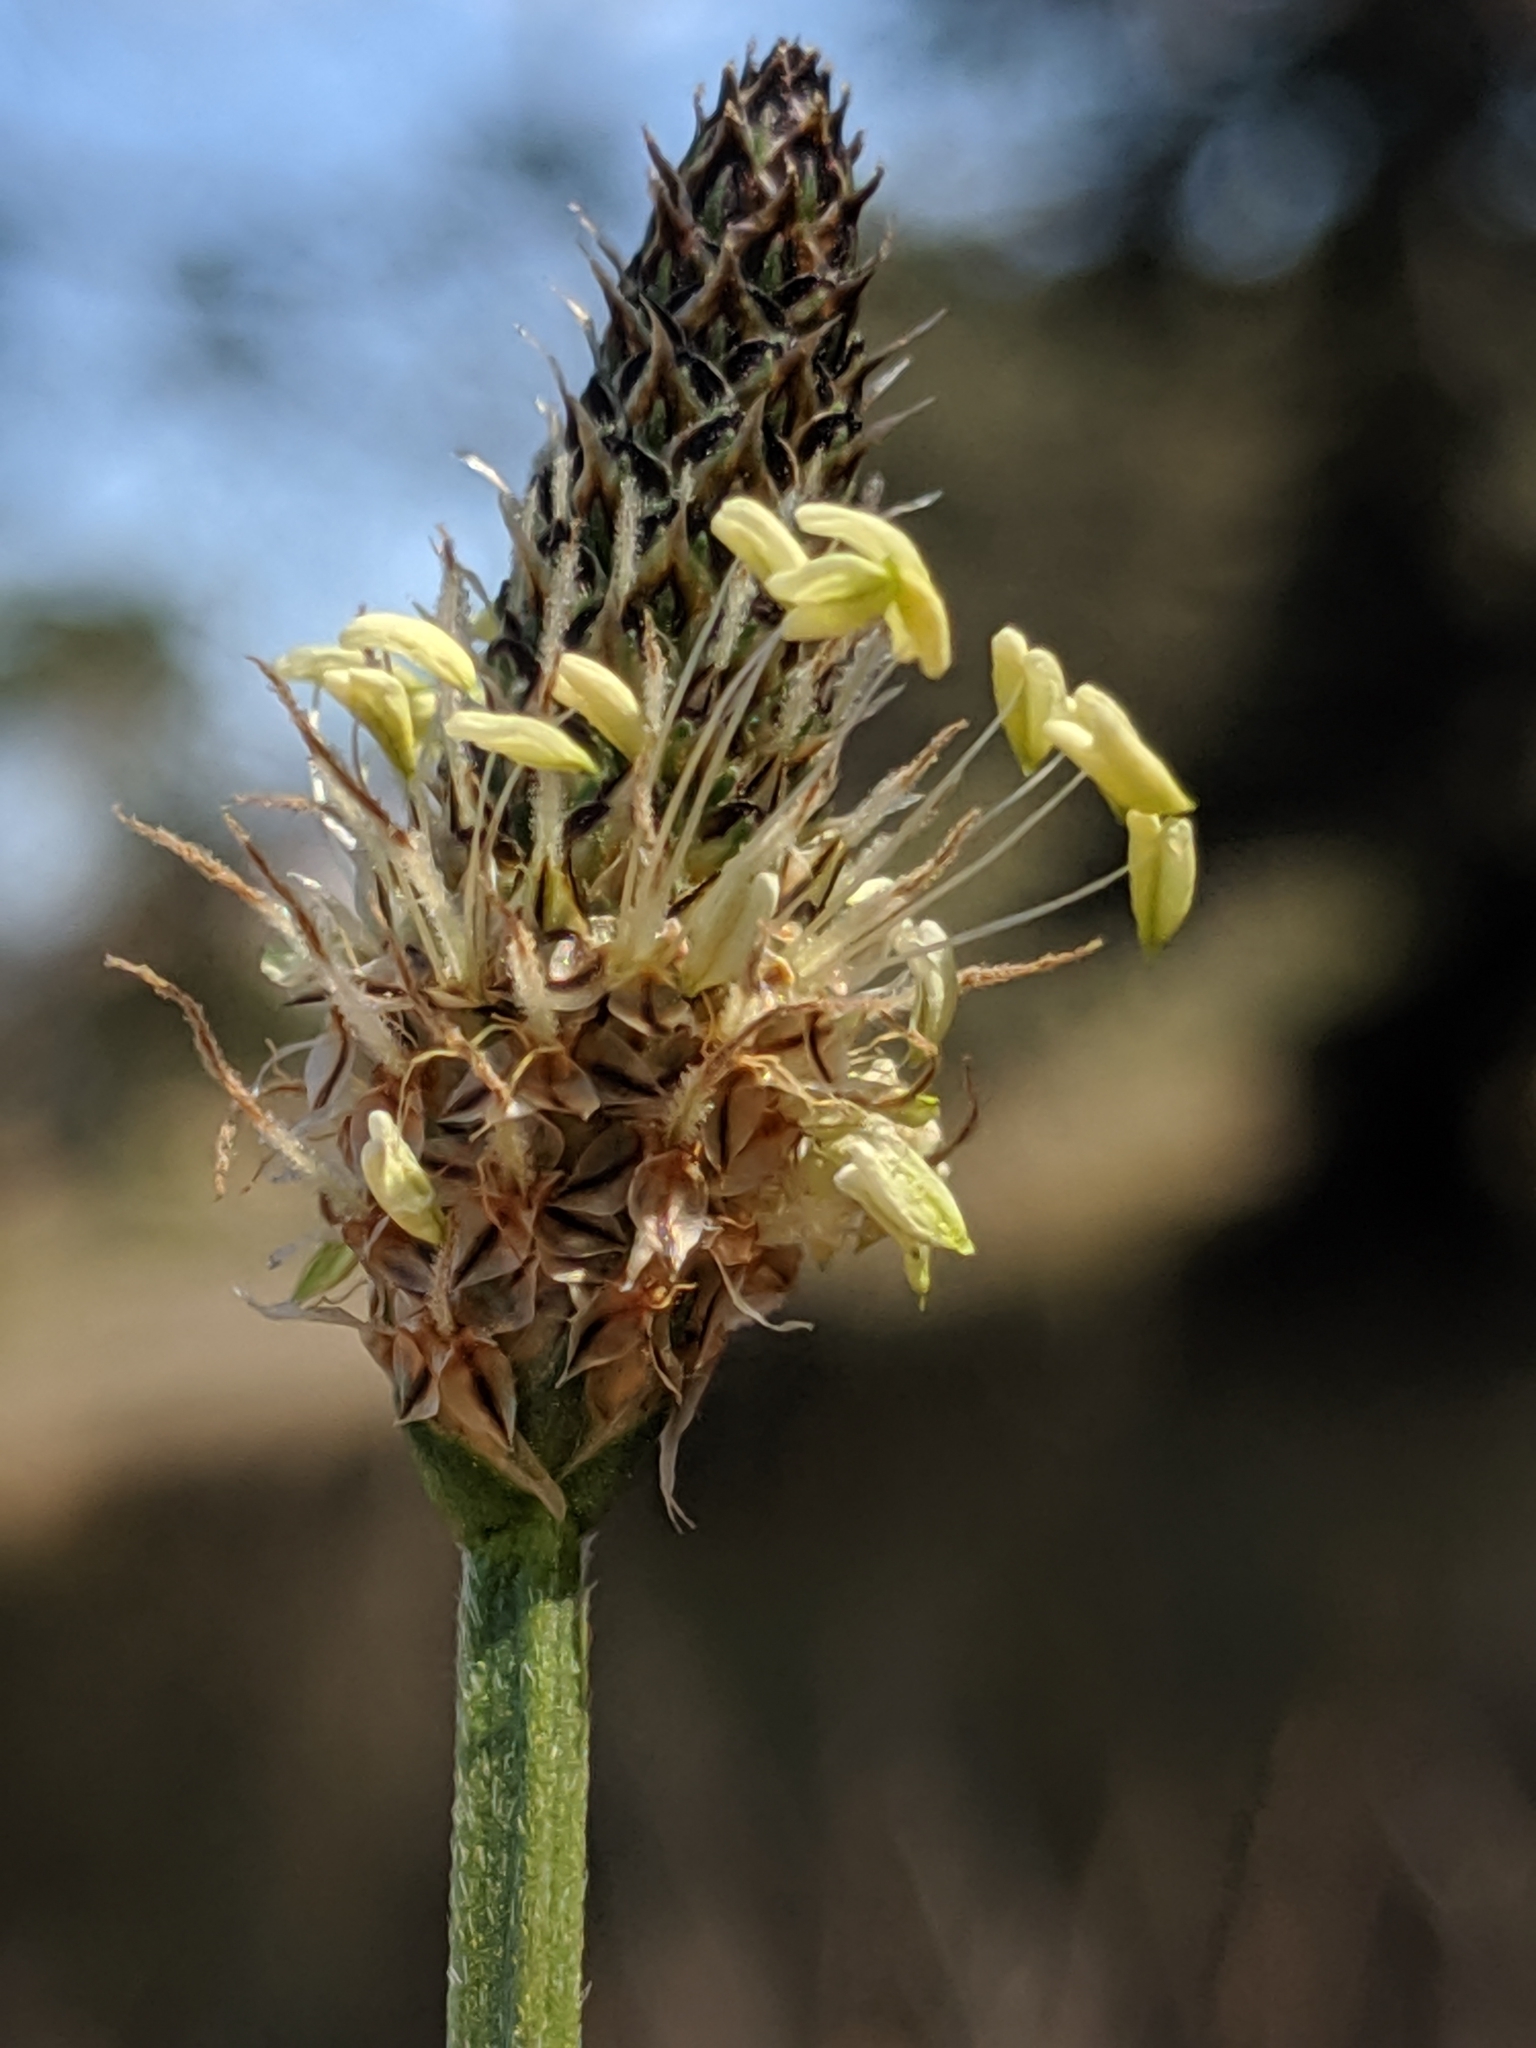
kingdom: Plantae
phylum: Tracheophyta
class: Magnoliopsida
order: Lamiales
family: Plantaginaceae
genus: Plantago
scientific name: Plantago lanceolata
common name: Ribwort plantain
